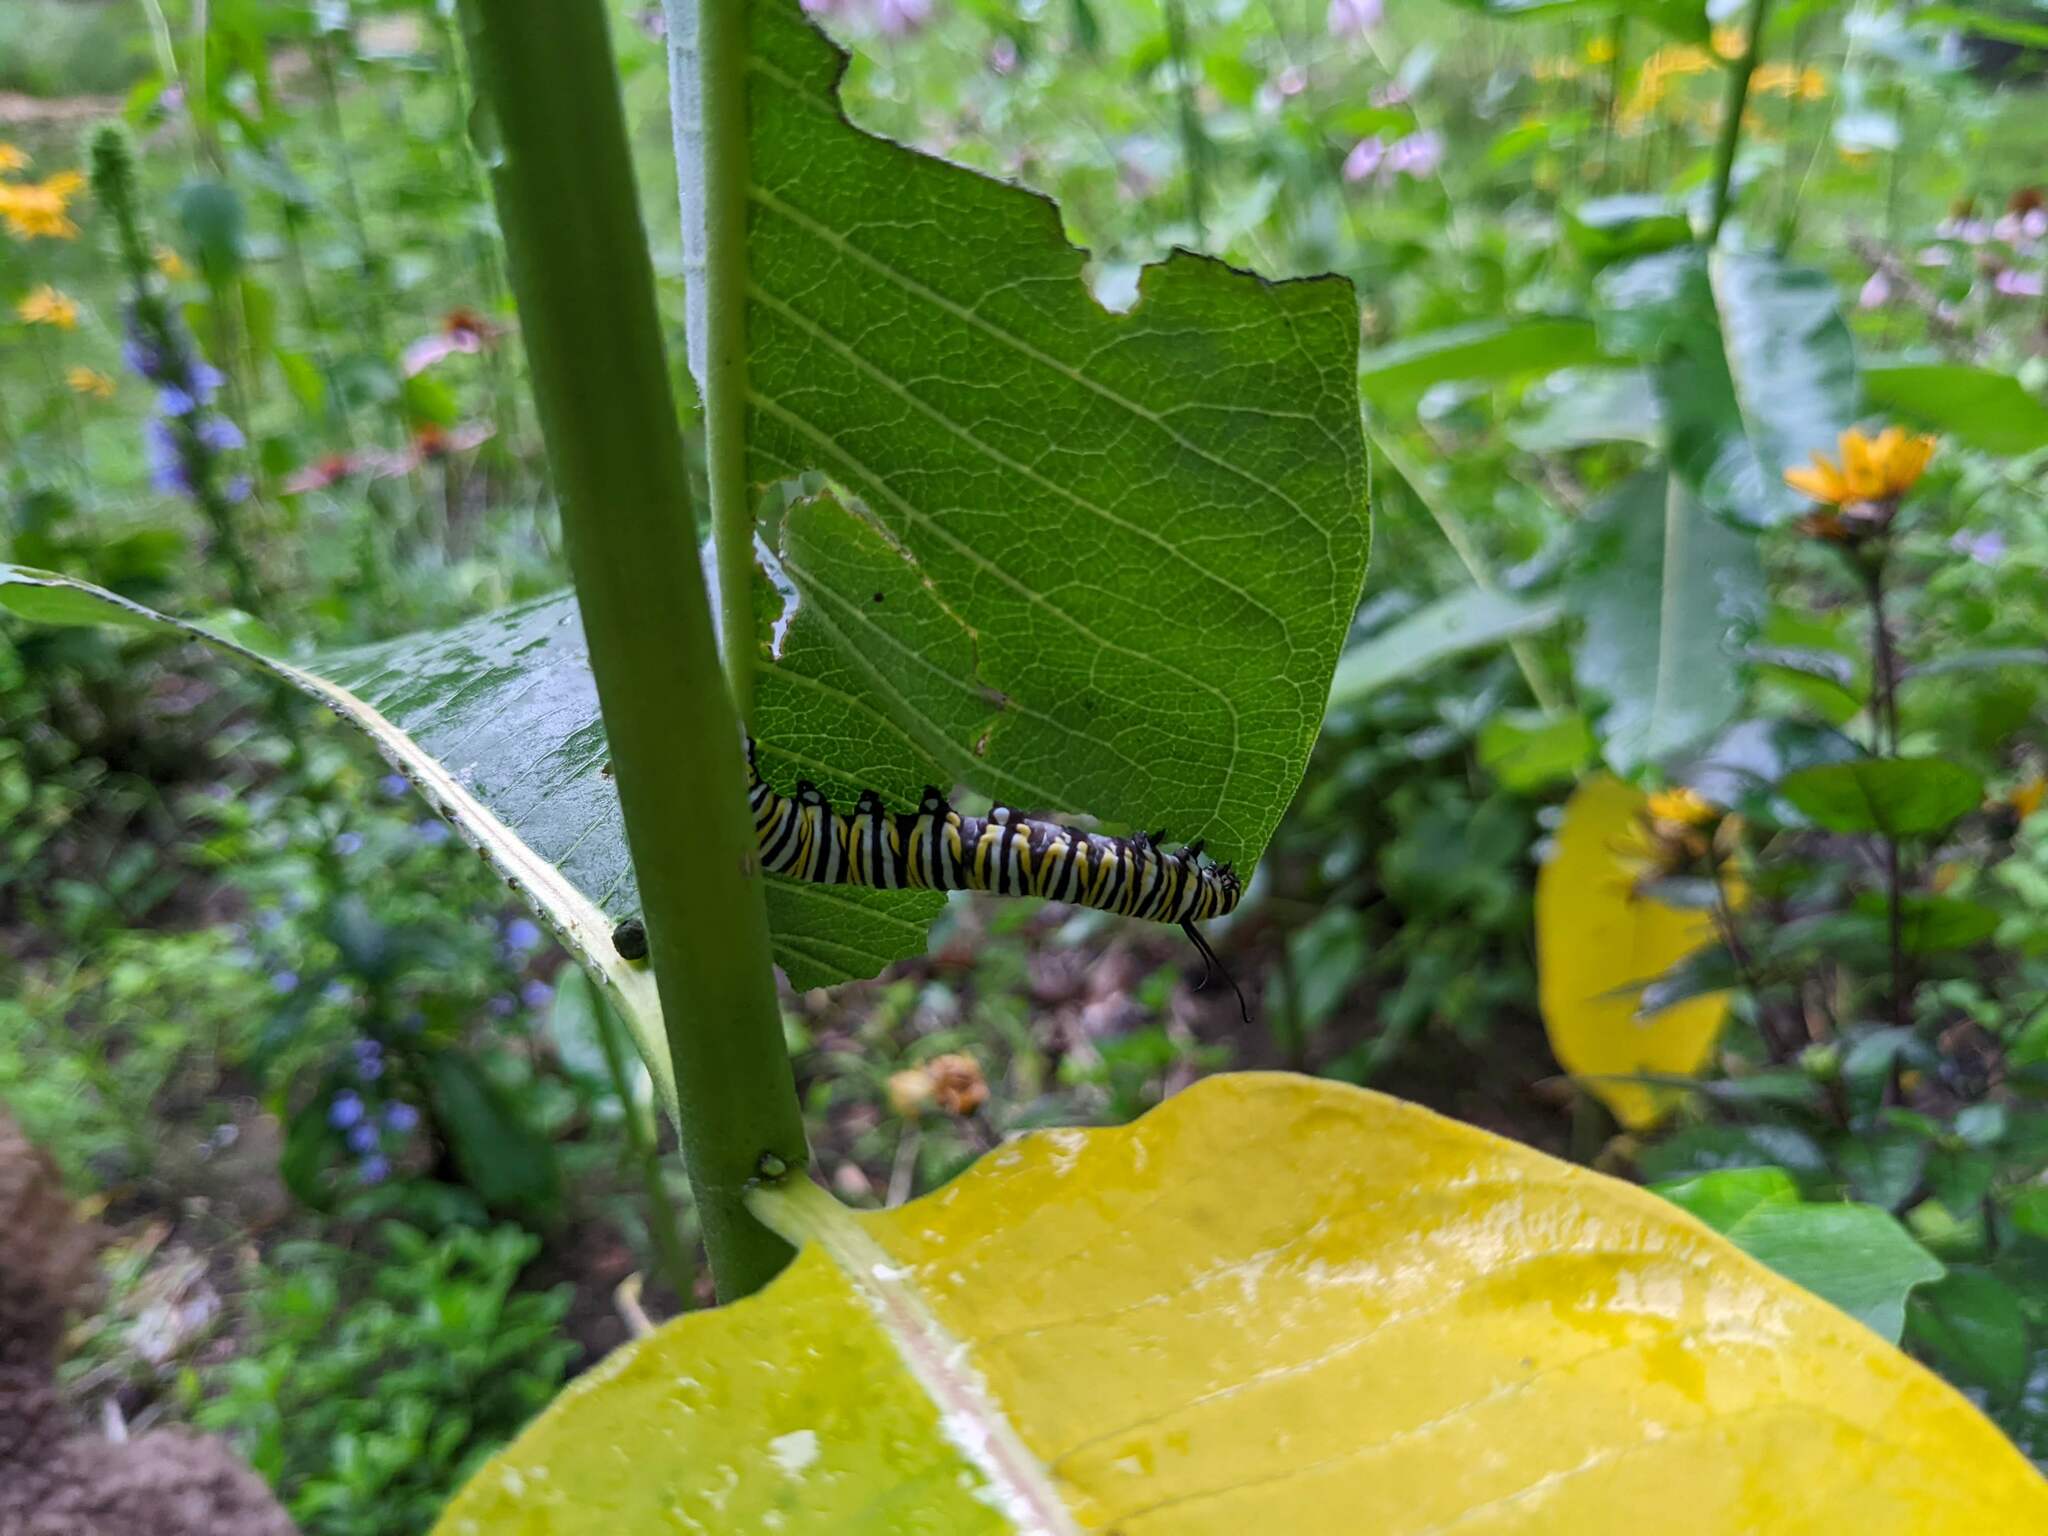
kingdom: Animalia
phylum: Arthropoda
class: Insecta
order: Lepidoptera
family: Nymphalidae
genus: Danaus
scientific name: Danaus plexippus
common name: Monarch
